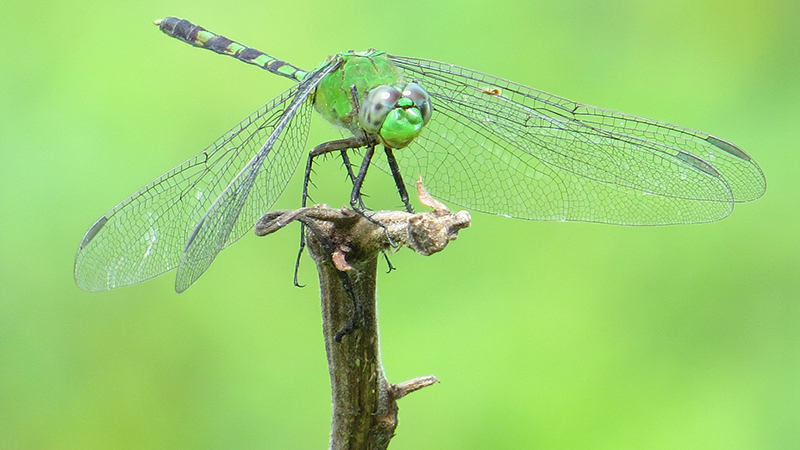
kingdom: Animalia
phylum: Arthropoda
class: Insecta
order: Odonata
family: Libellulidae
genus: Erythemis
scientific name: Erythemis vesiculosa
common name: Great pondhawk
